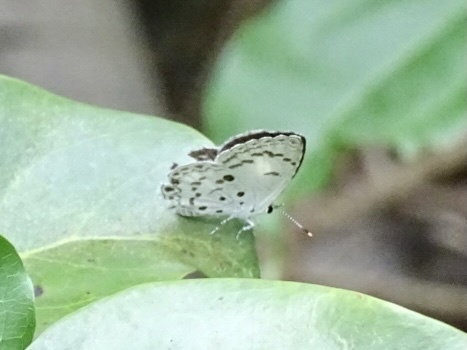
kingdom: Animalia
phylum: Arthropoda
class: Insecta
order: Lepidoptera
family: Lycaenidae
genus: Acytolepis
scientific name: Acytolepis puspa
